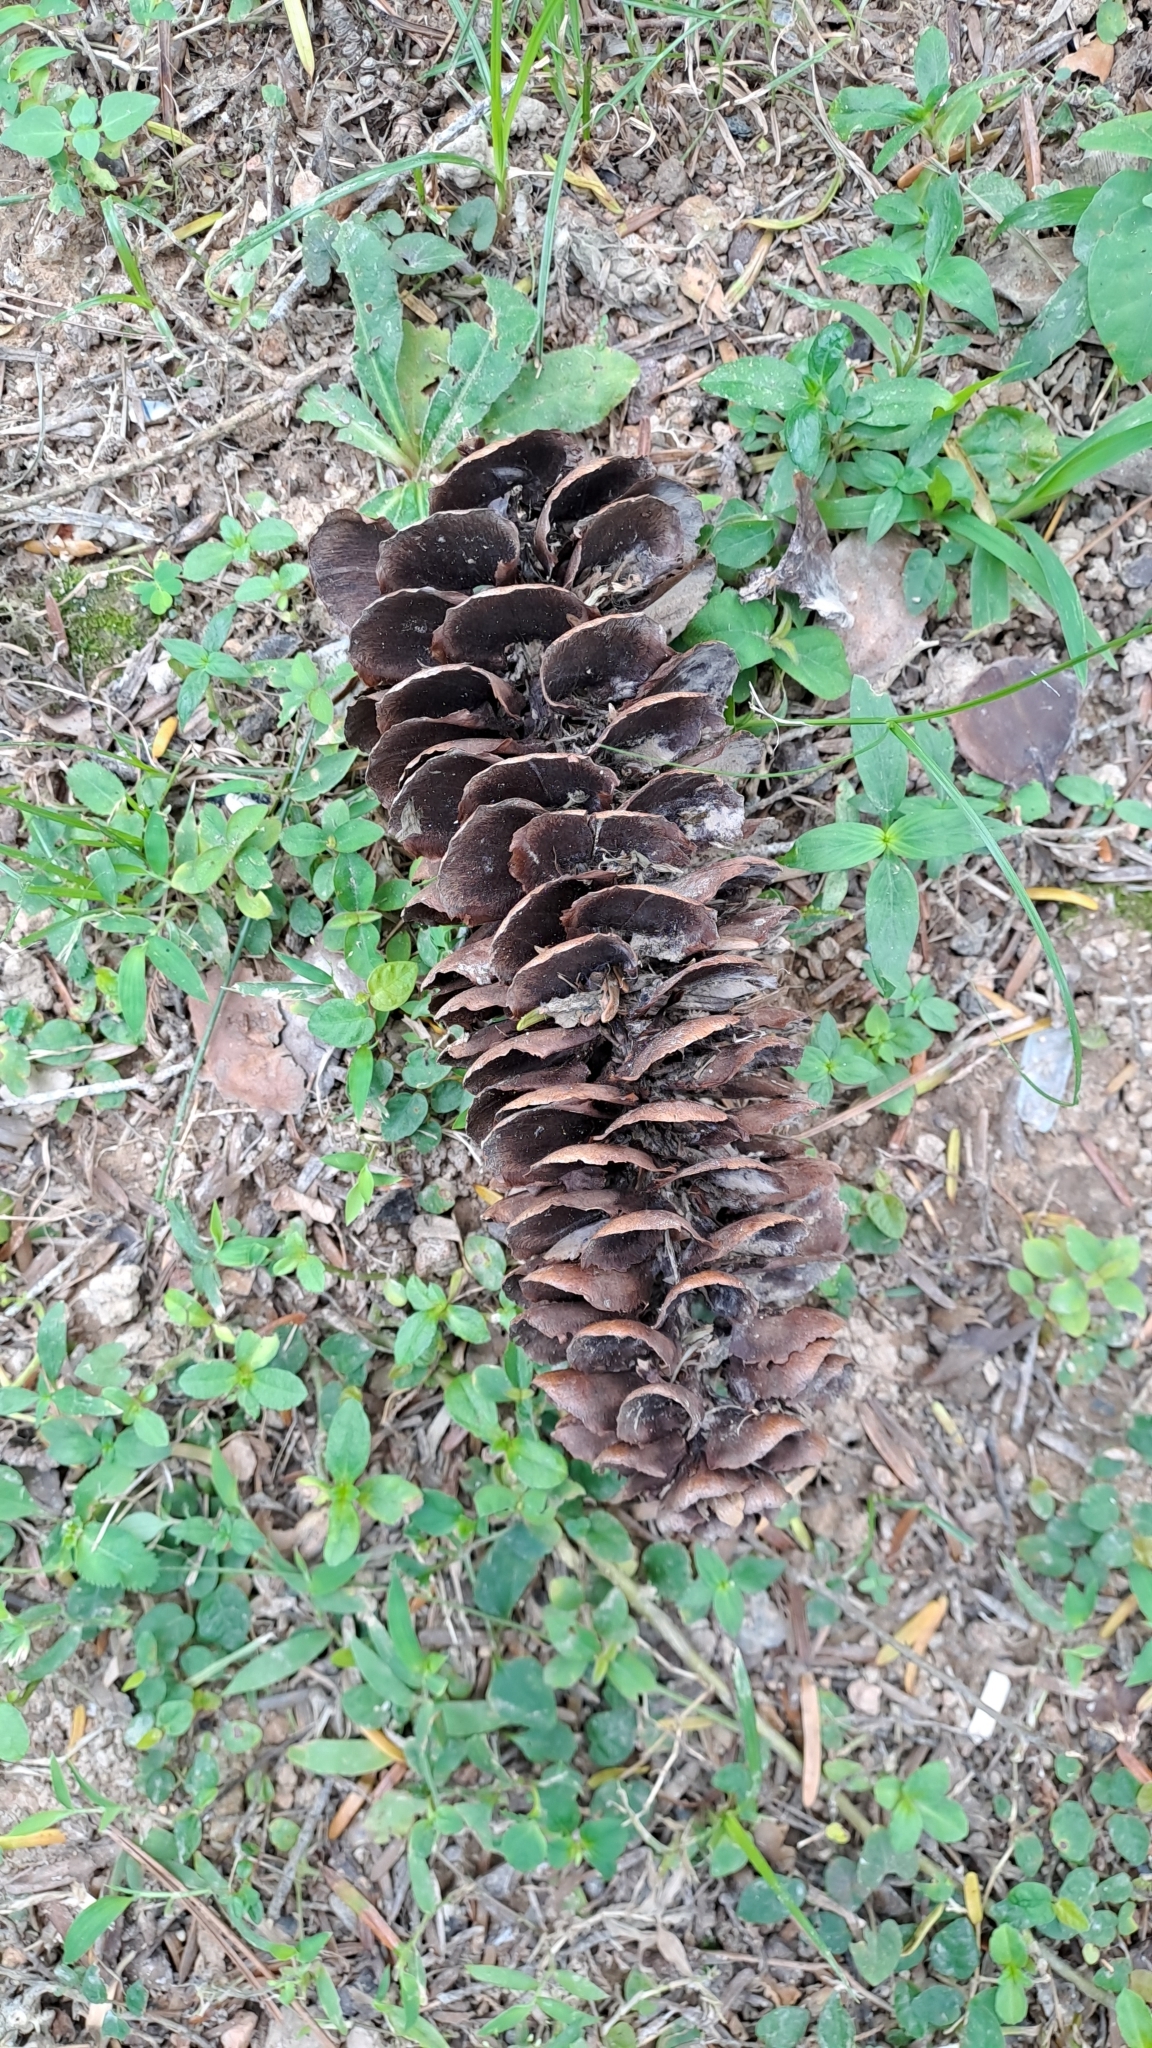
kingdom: Plantae
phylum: Tracheophyta
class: Pinopsida
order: Pinales
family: Pinaceae
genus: Keteleeria
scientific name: Keteleeria fortunei
